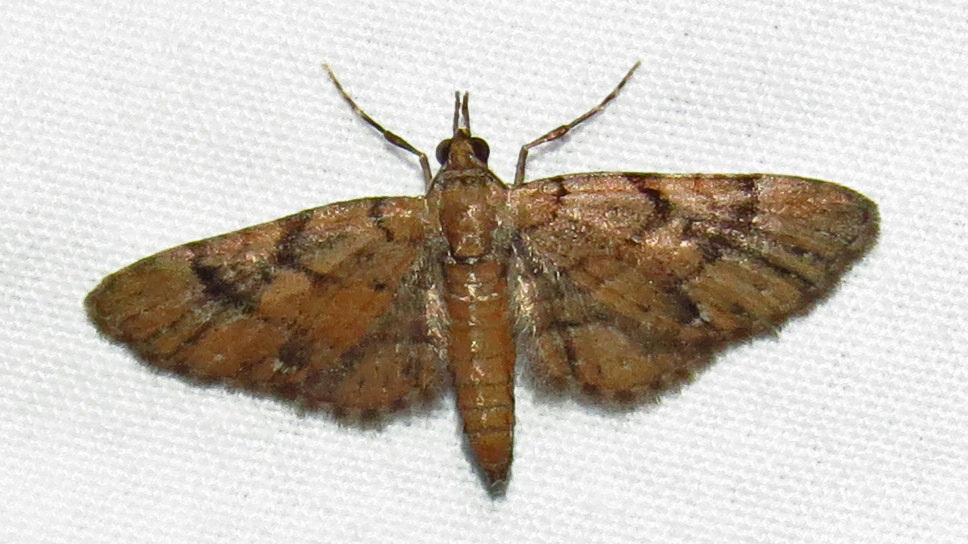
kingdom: Animalia
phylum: Arthropoda
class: Insecta
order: Lepidoptera
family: Geometridae
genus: Eupithecia
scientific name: Eupithecia peckorum
